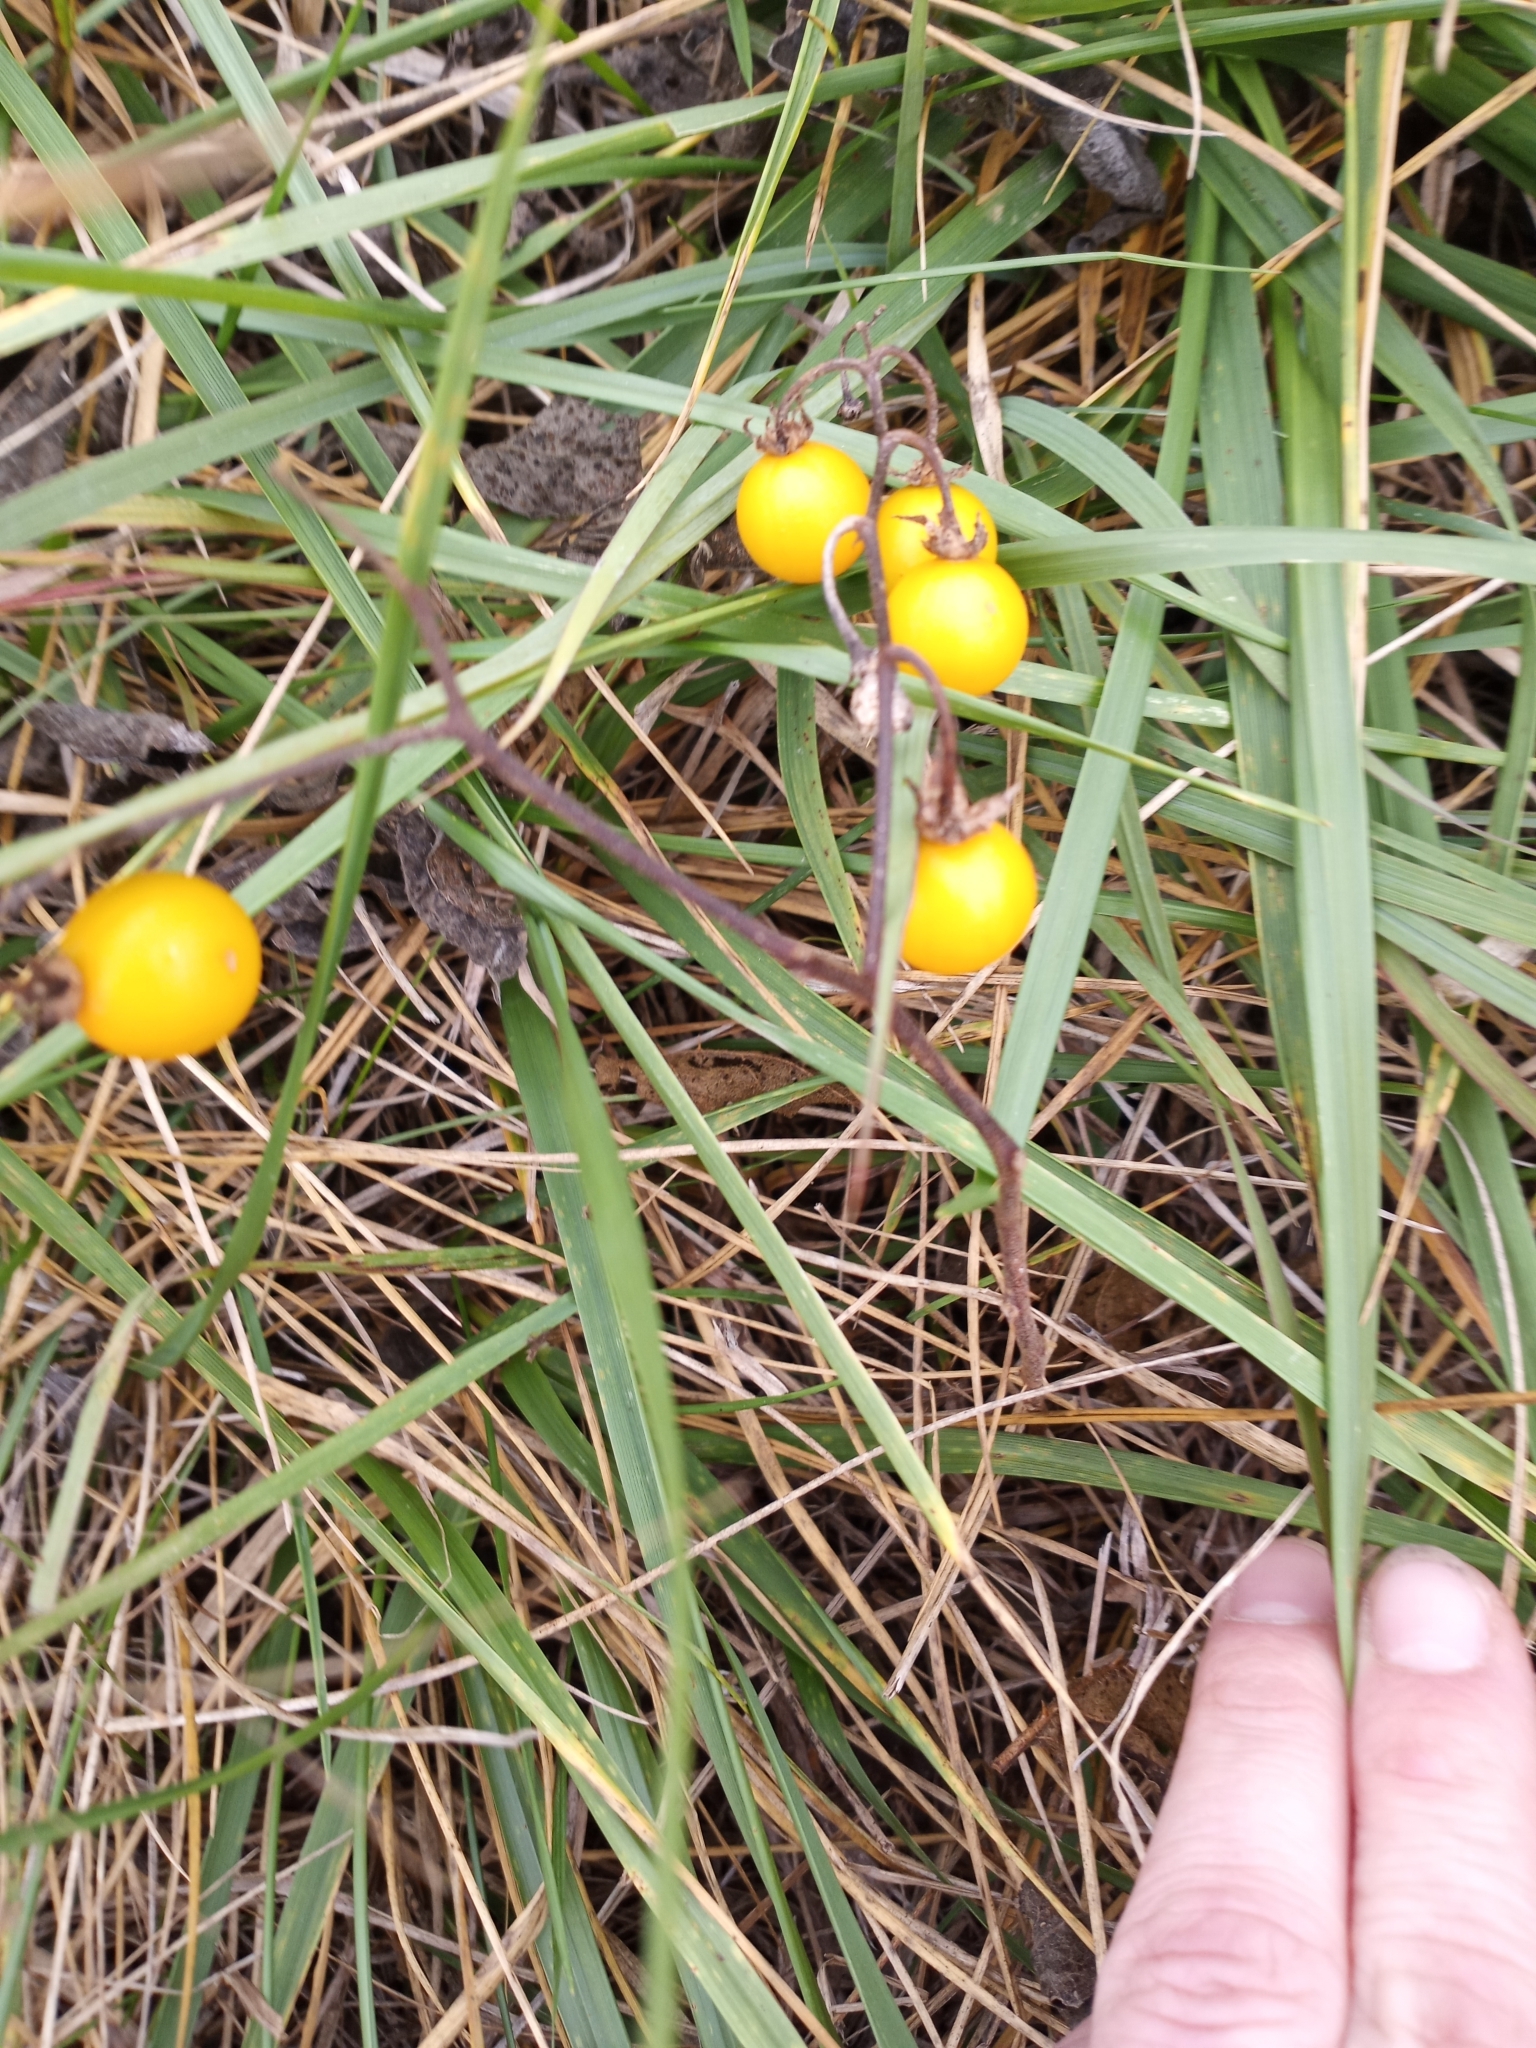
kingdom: Plantae
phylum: Tracheophyta
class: Magnoliopsida
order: Solanales
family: Solanaceae
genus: Solanum
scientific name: Solanum carolinense
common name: Horse-nettle
